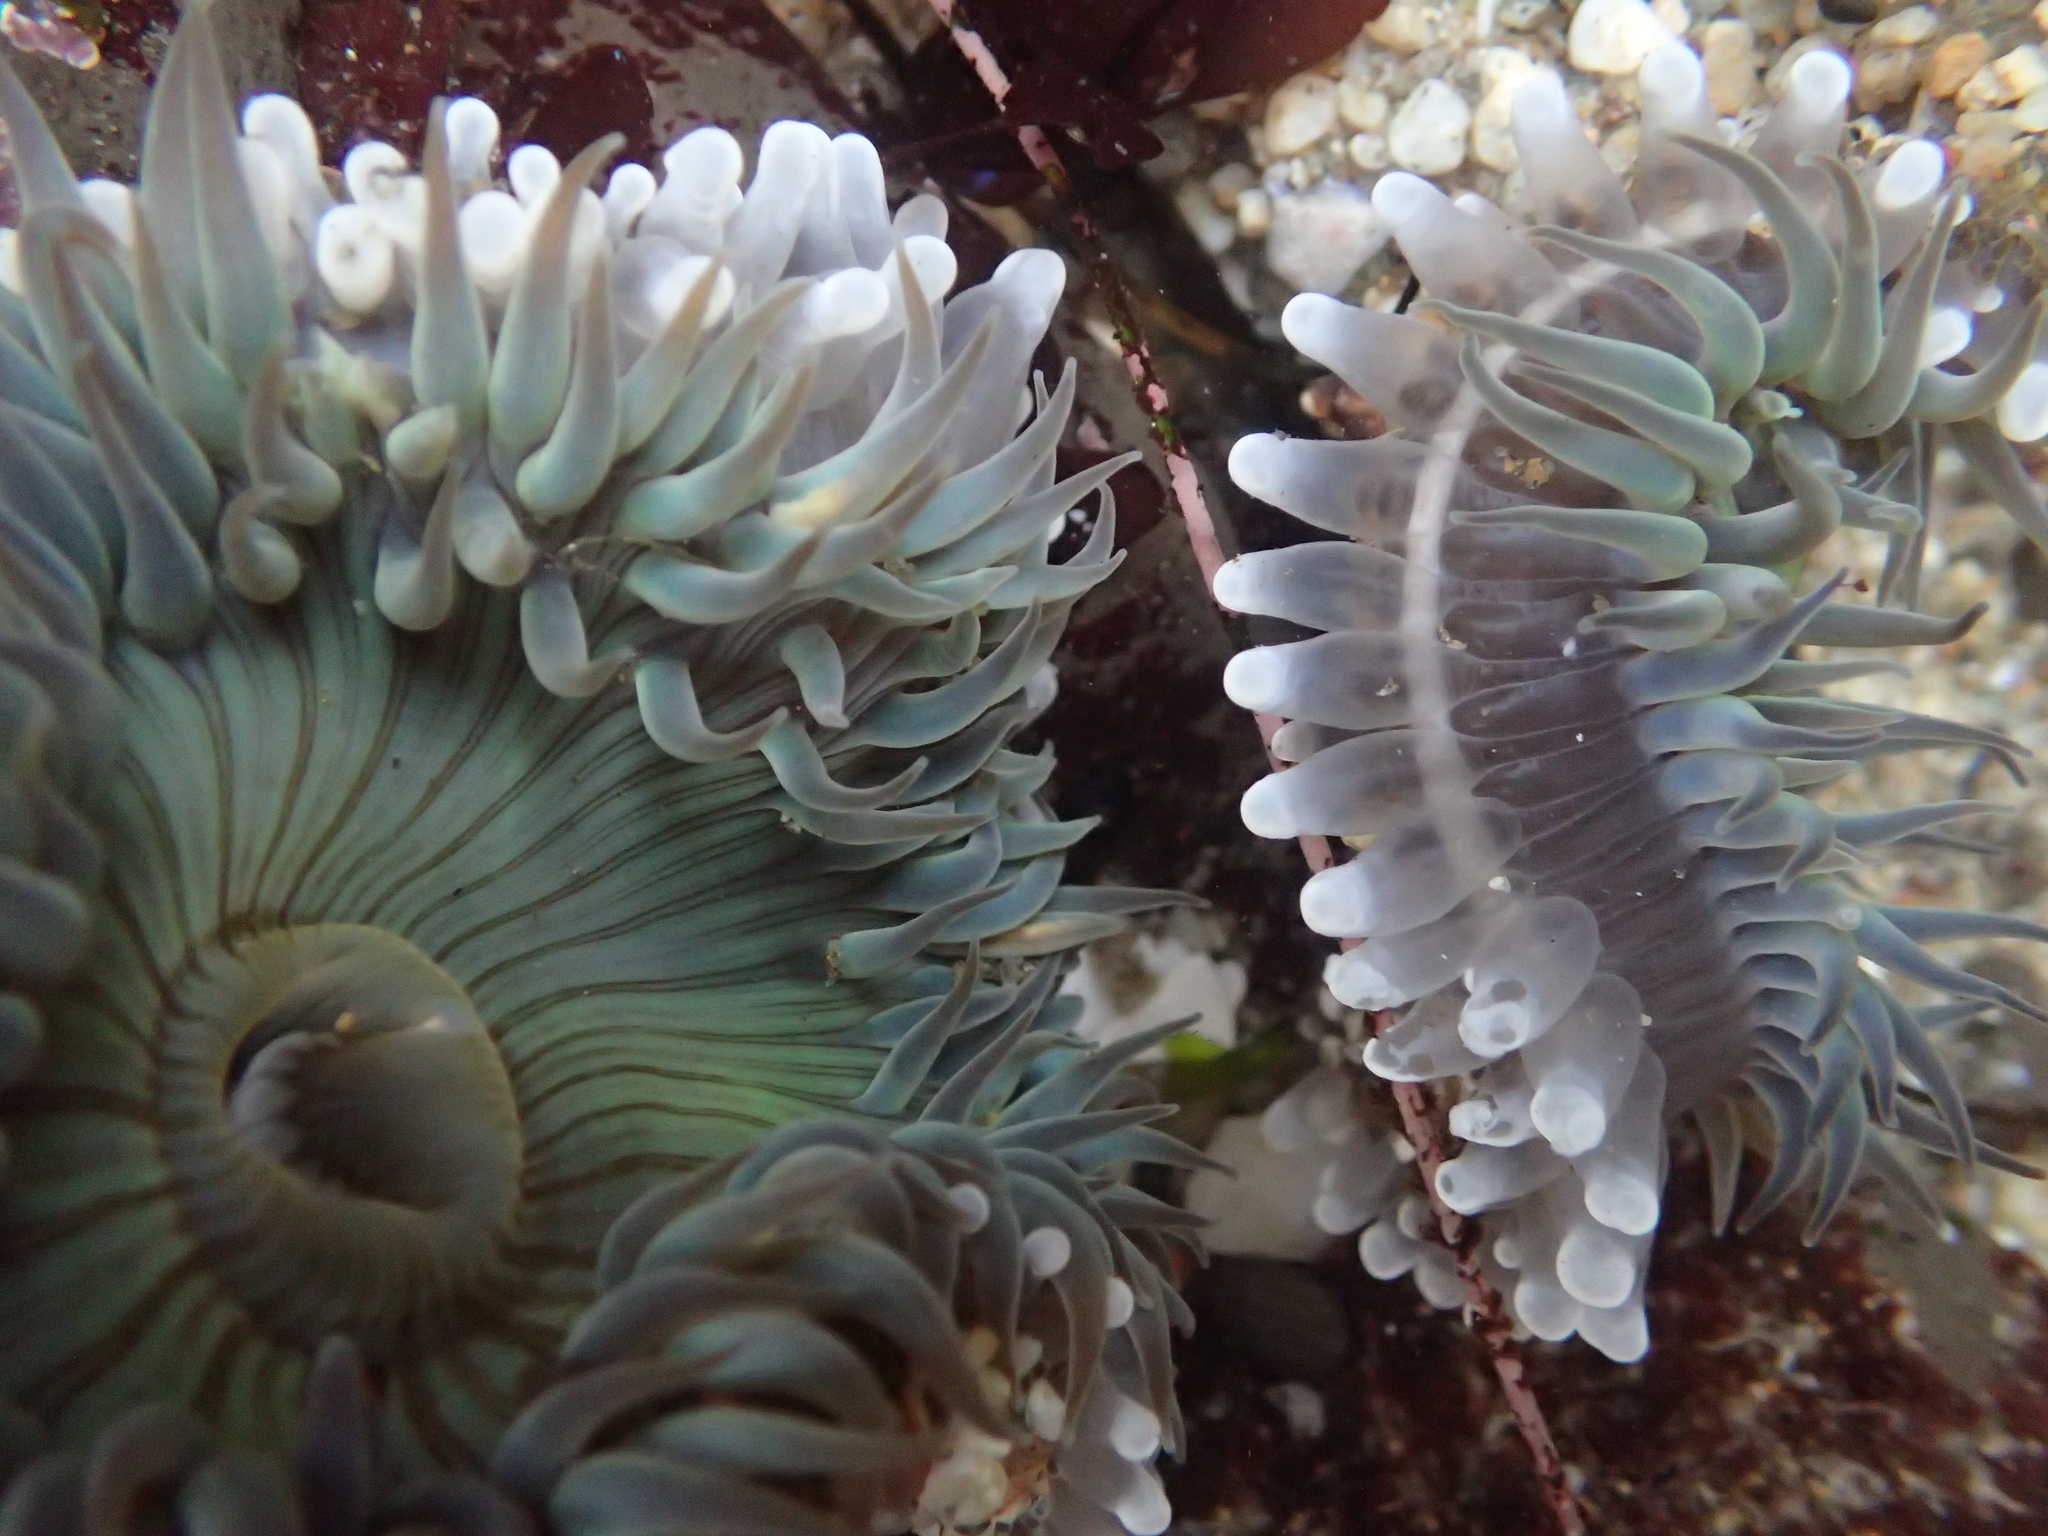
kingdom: Animalia
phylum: Cnidaria
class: Anthozoa
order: Actiniaria
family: Actiniidae
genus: Anthopleura
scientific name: Anthopleura sola
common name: Sun anemone
